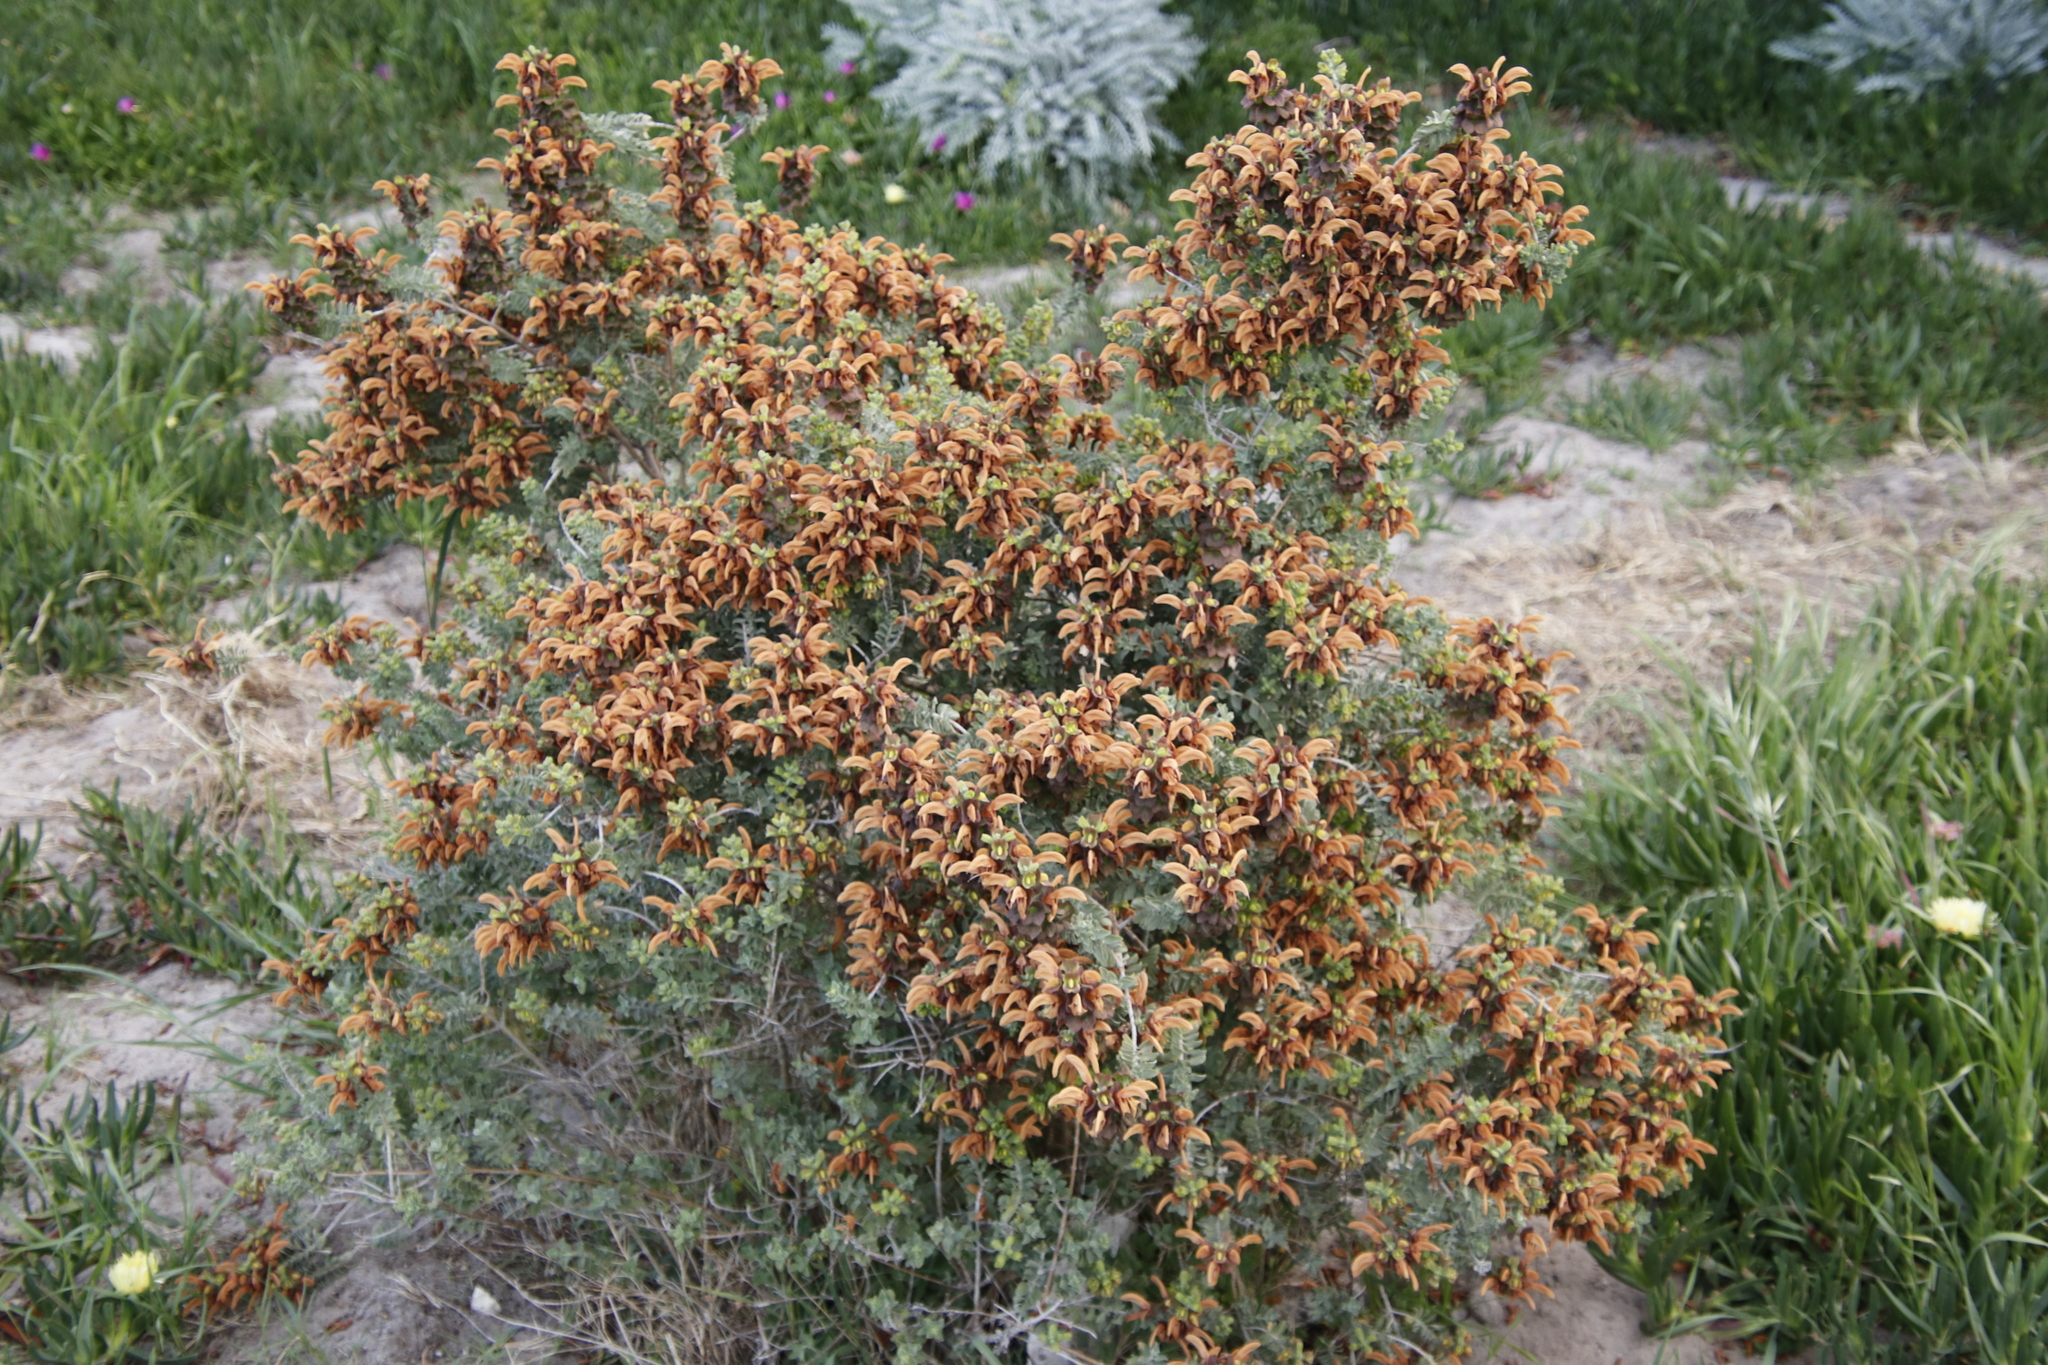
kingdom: Plantae
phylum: Tracheophyta
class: Magnoliopsida
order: Lamiales
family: Lamiaceae
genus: Salvia
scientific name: Salvia aurea
